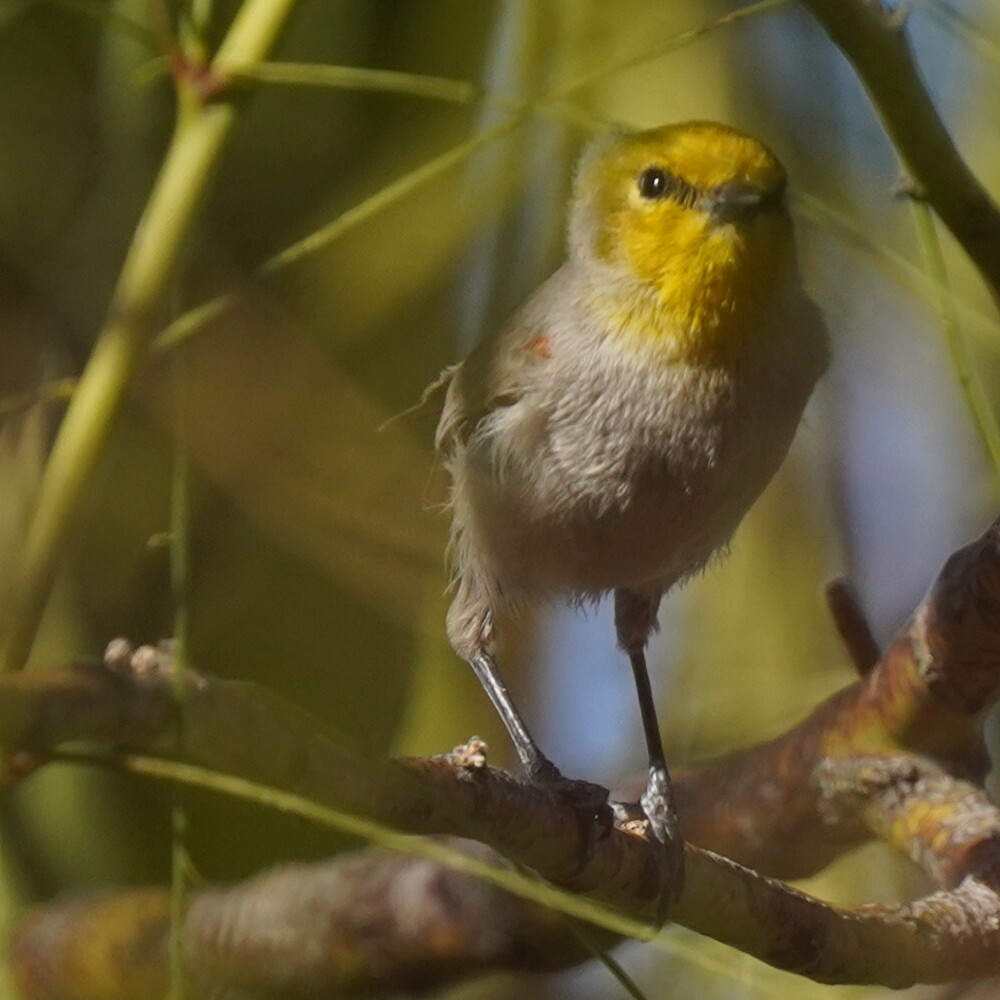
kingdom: Animalia
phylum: Chordata
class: Aves
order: Passeriformes
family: Remizidae
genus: Auriparus
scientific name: Auriparus flaviceps
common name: Verdin
